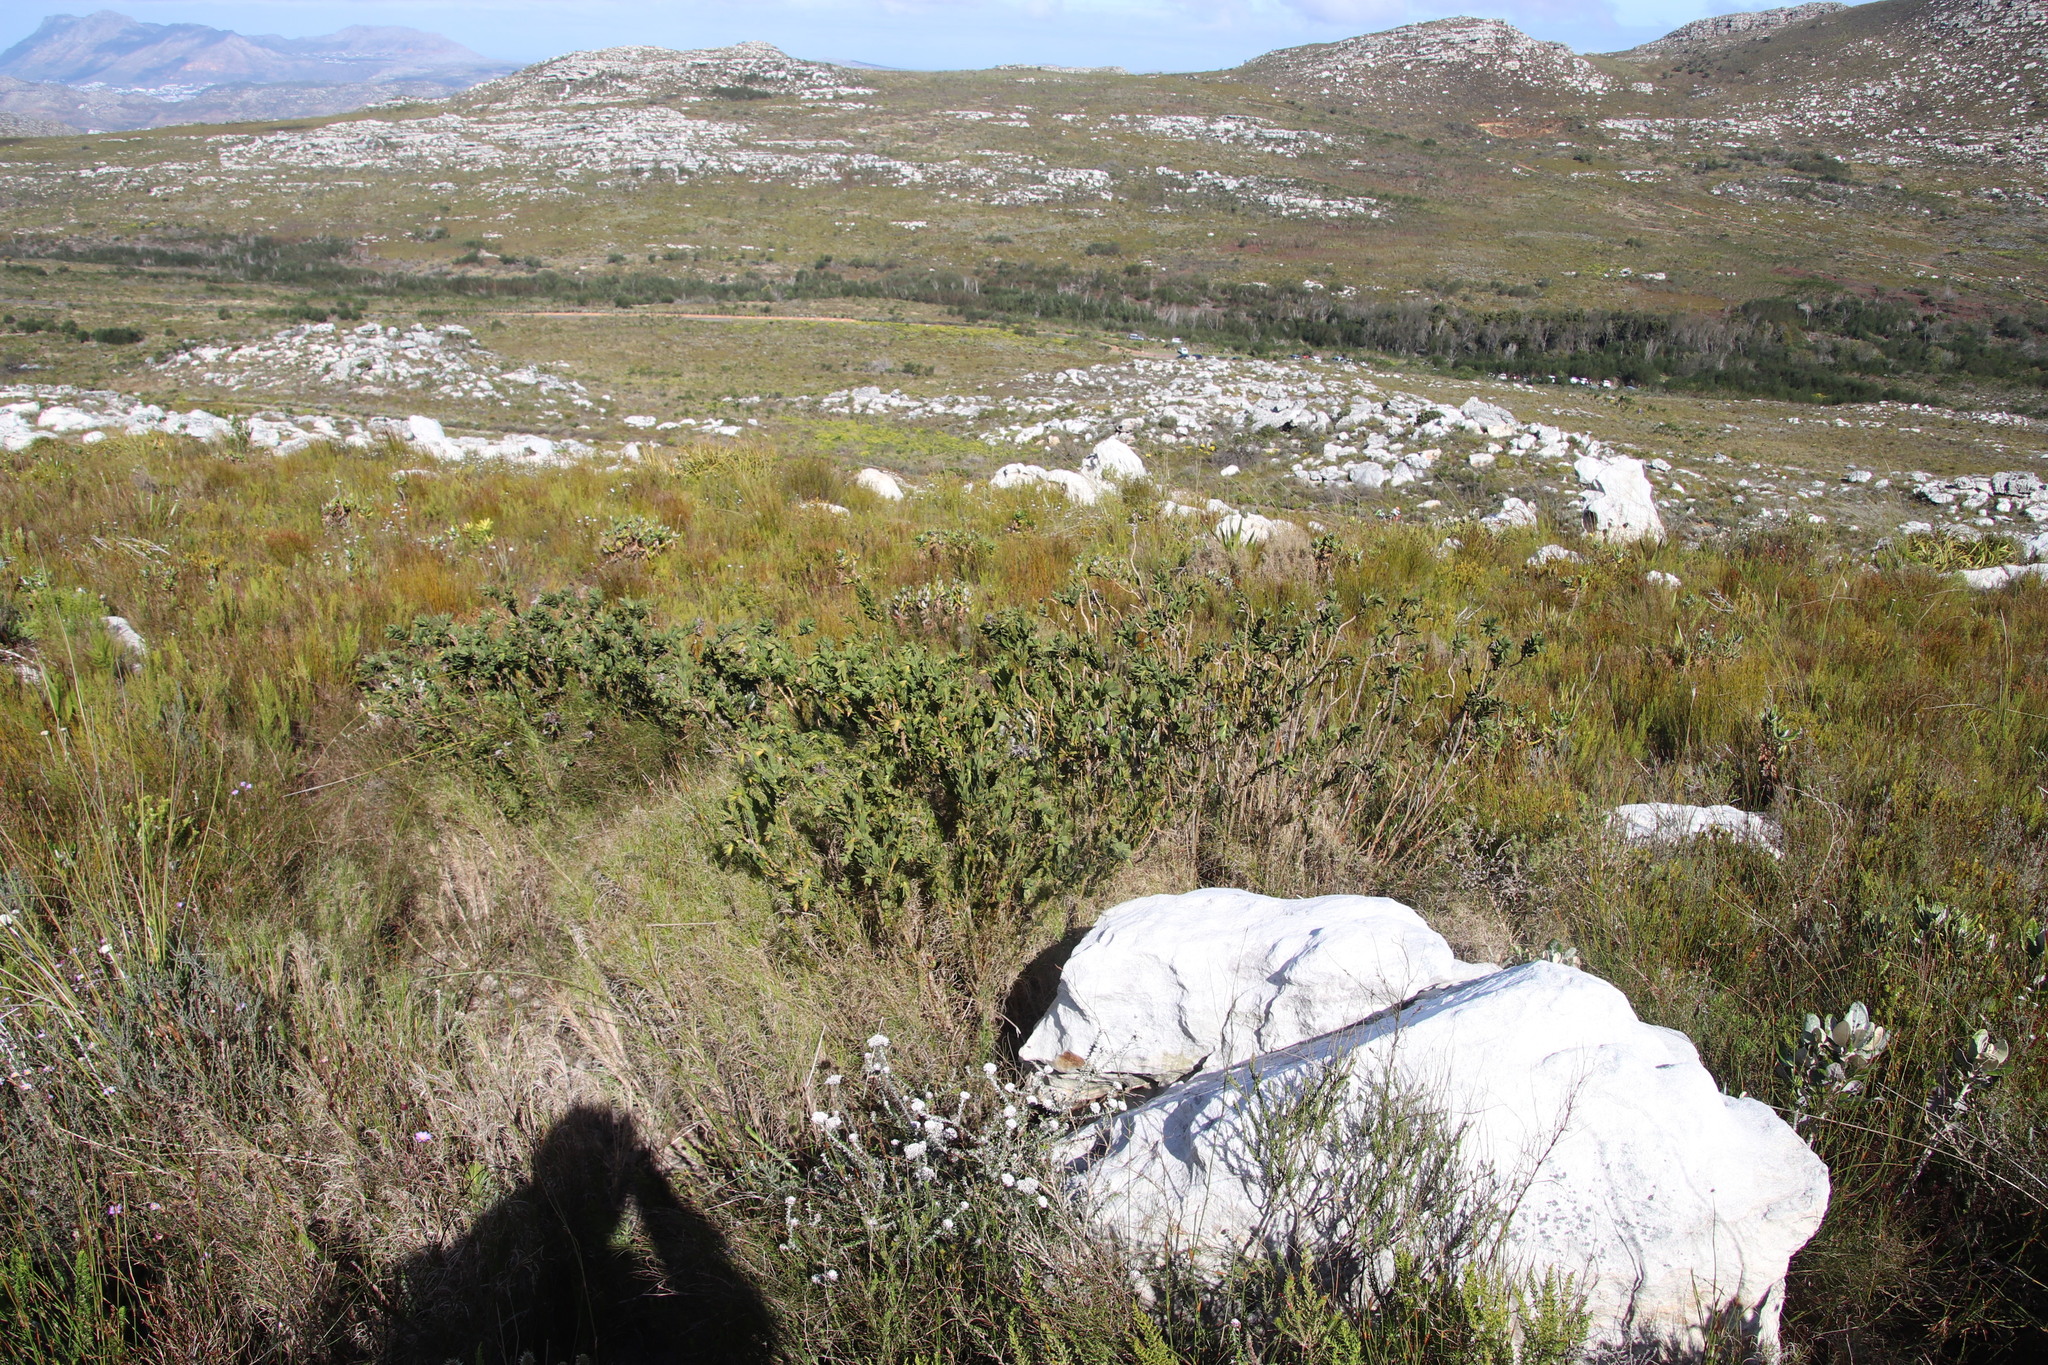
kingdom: Plantae
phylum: Tracheophyta
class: Magnoliopsida
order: Fabales
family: Fabaceae
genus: Liparia
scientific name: Liparia splendens
